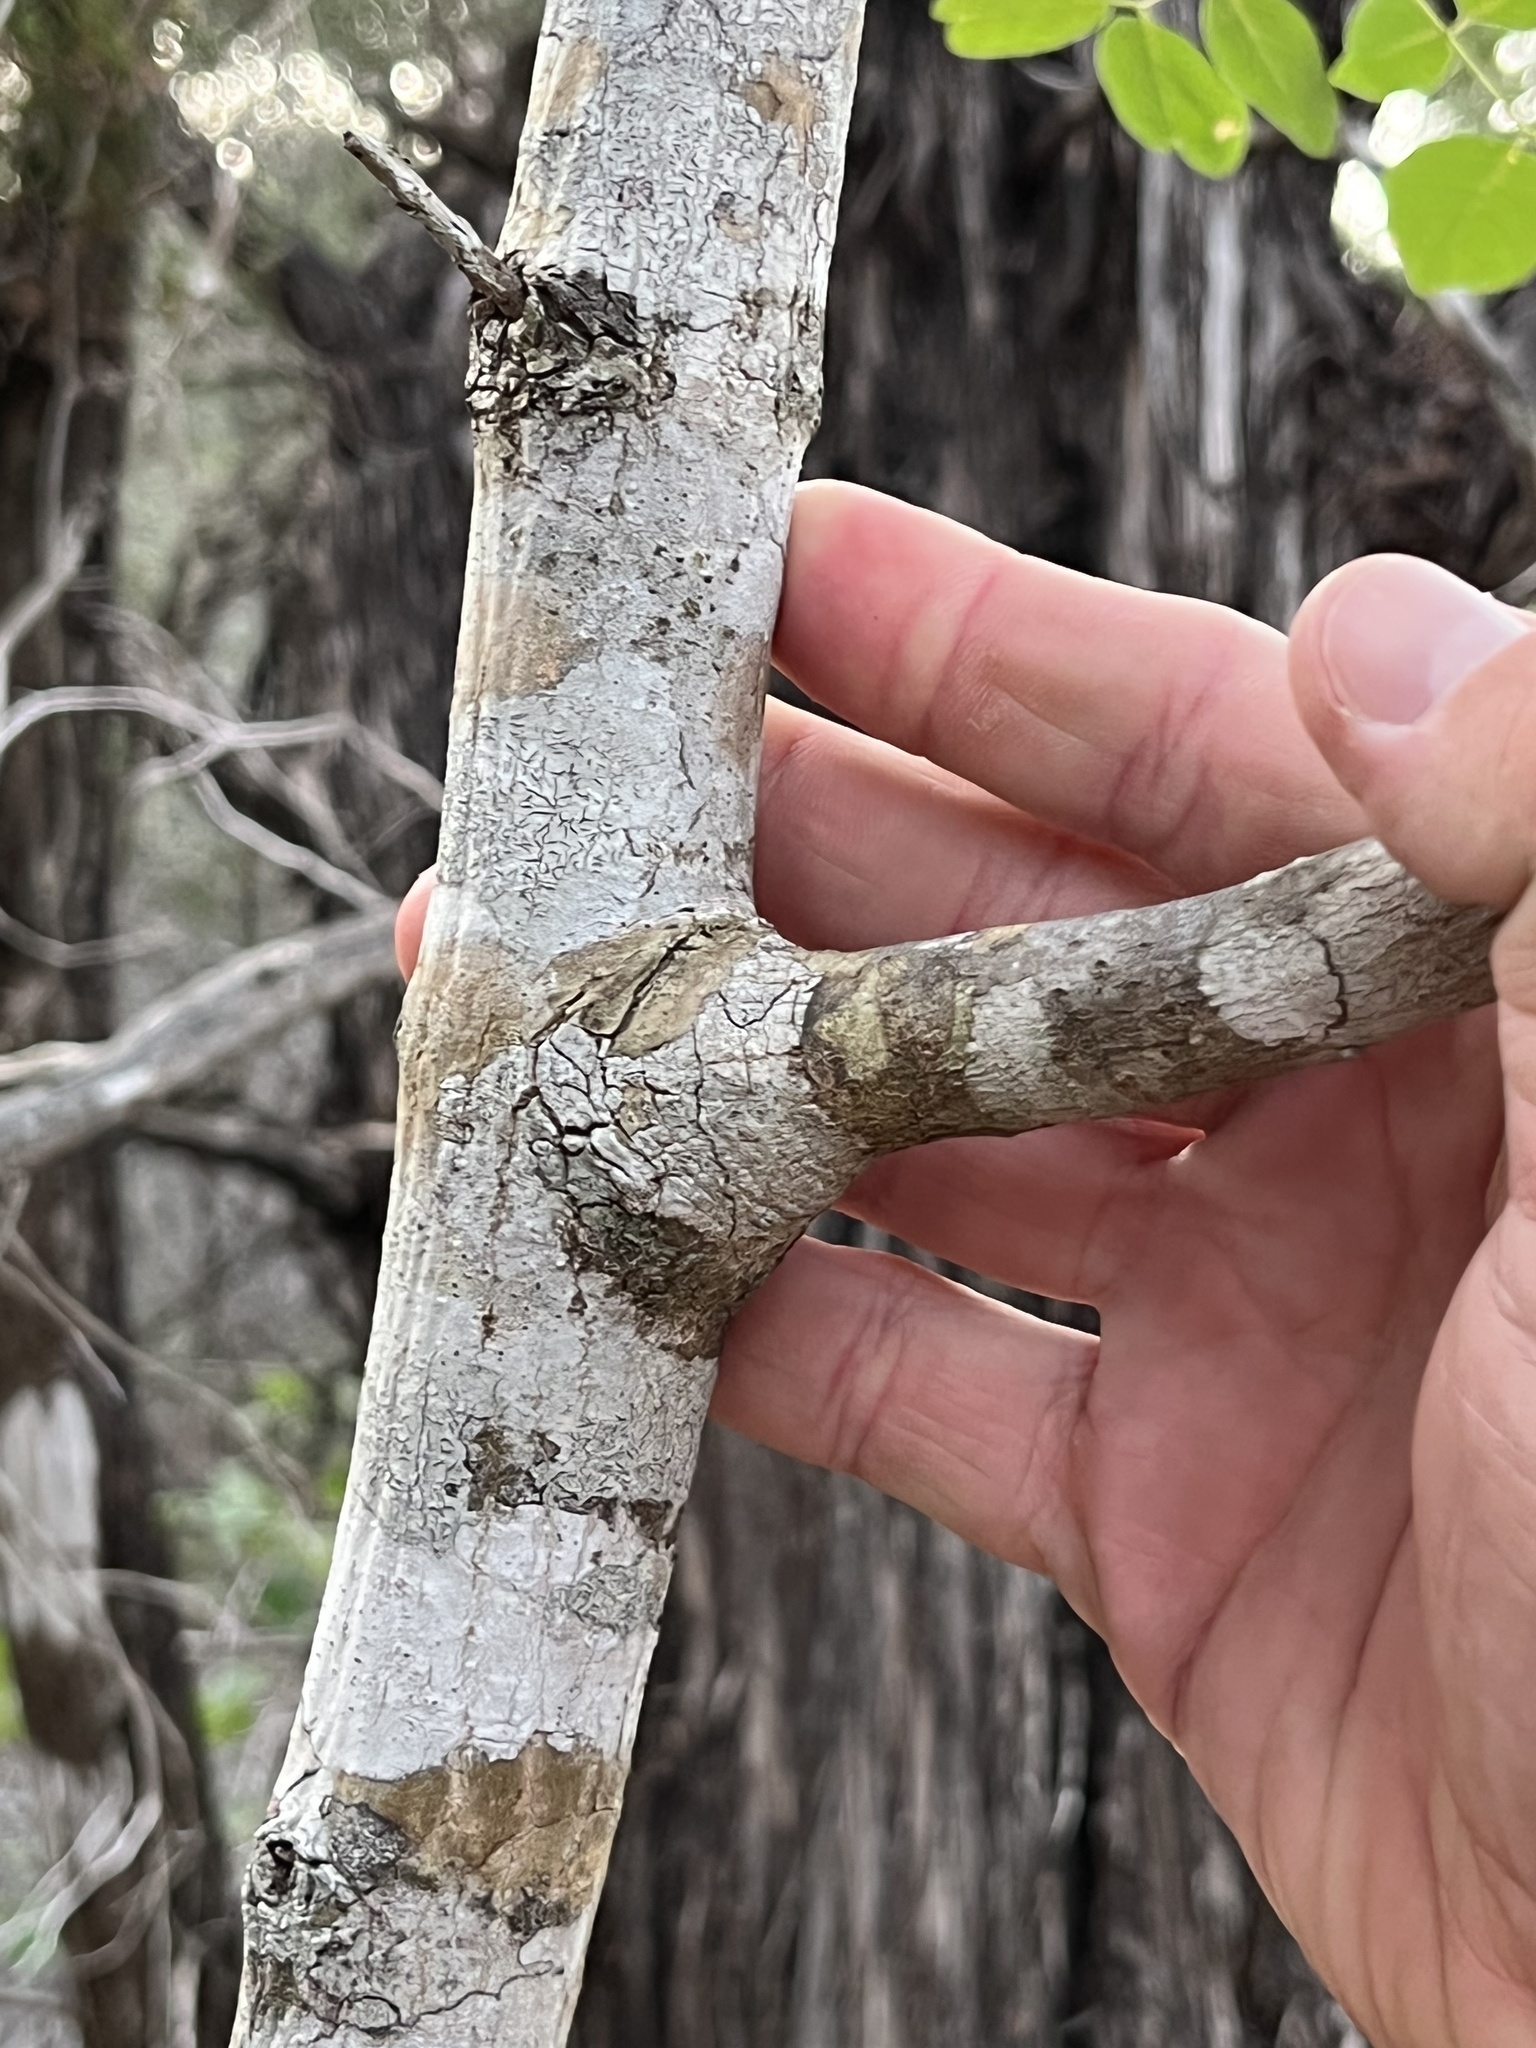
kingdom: Plantae
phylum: Tracheophyta
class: Magnoliopsida
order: Lamiales
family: Oleaceae
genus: Fraxinus
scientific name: Fraxinus albicans
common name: Texas ash
